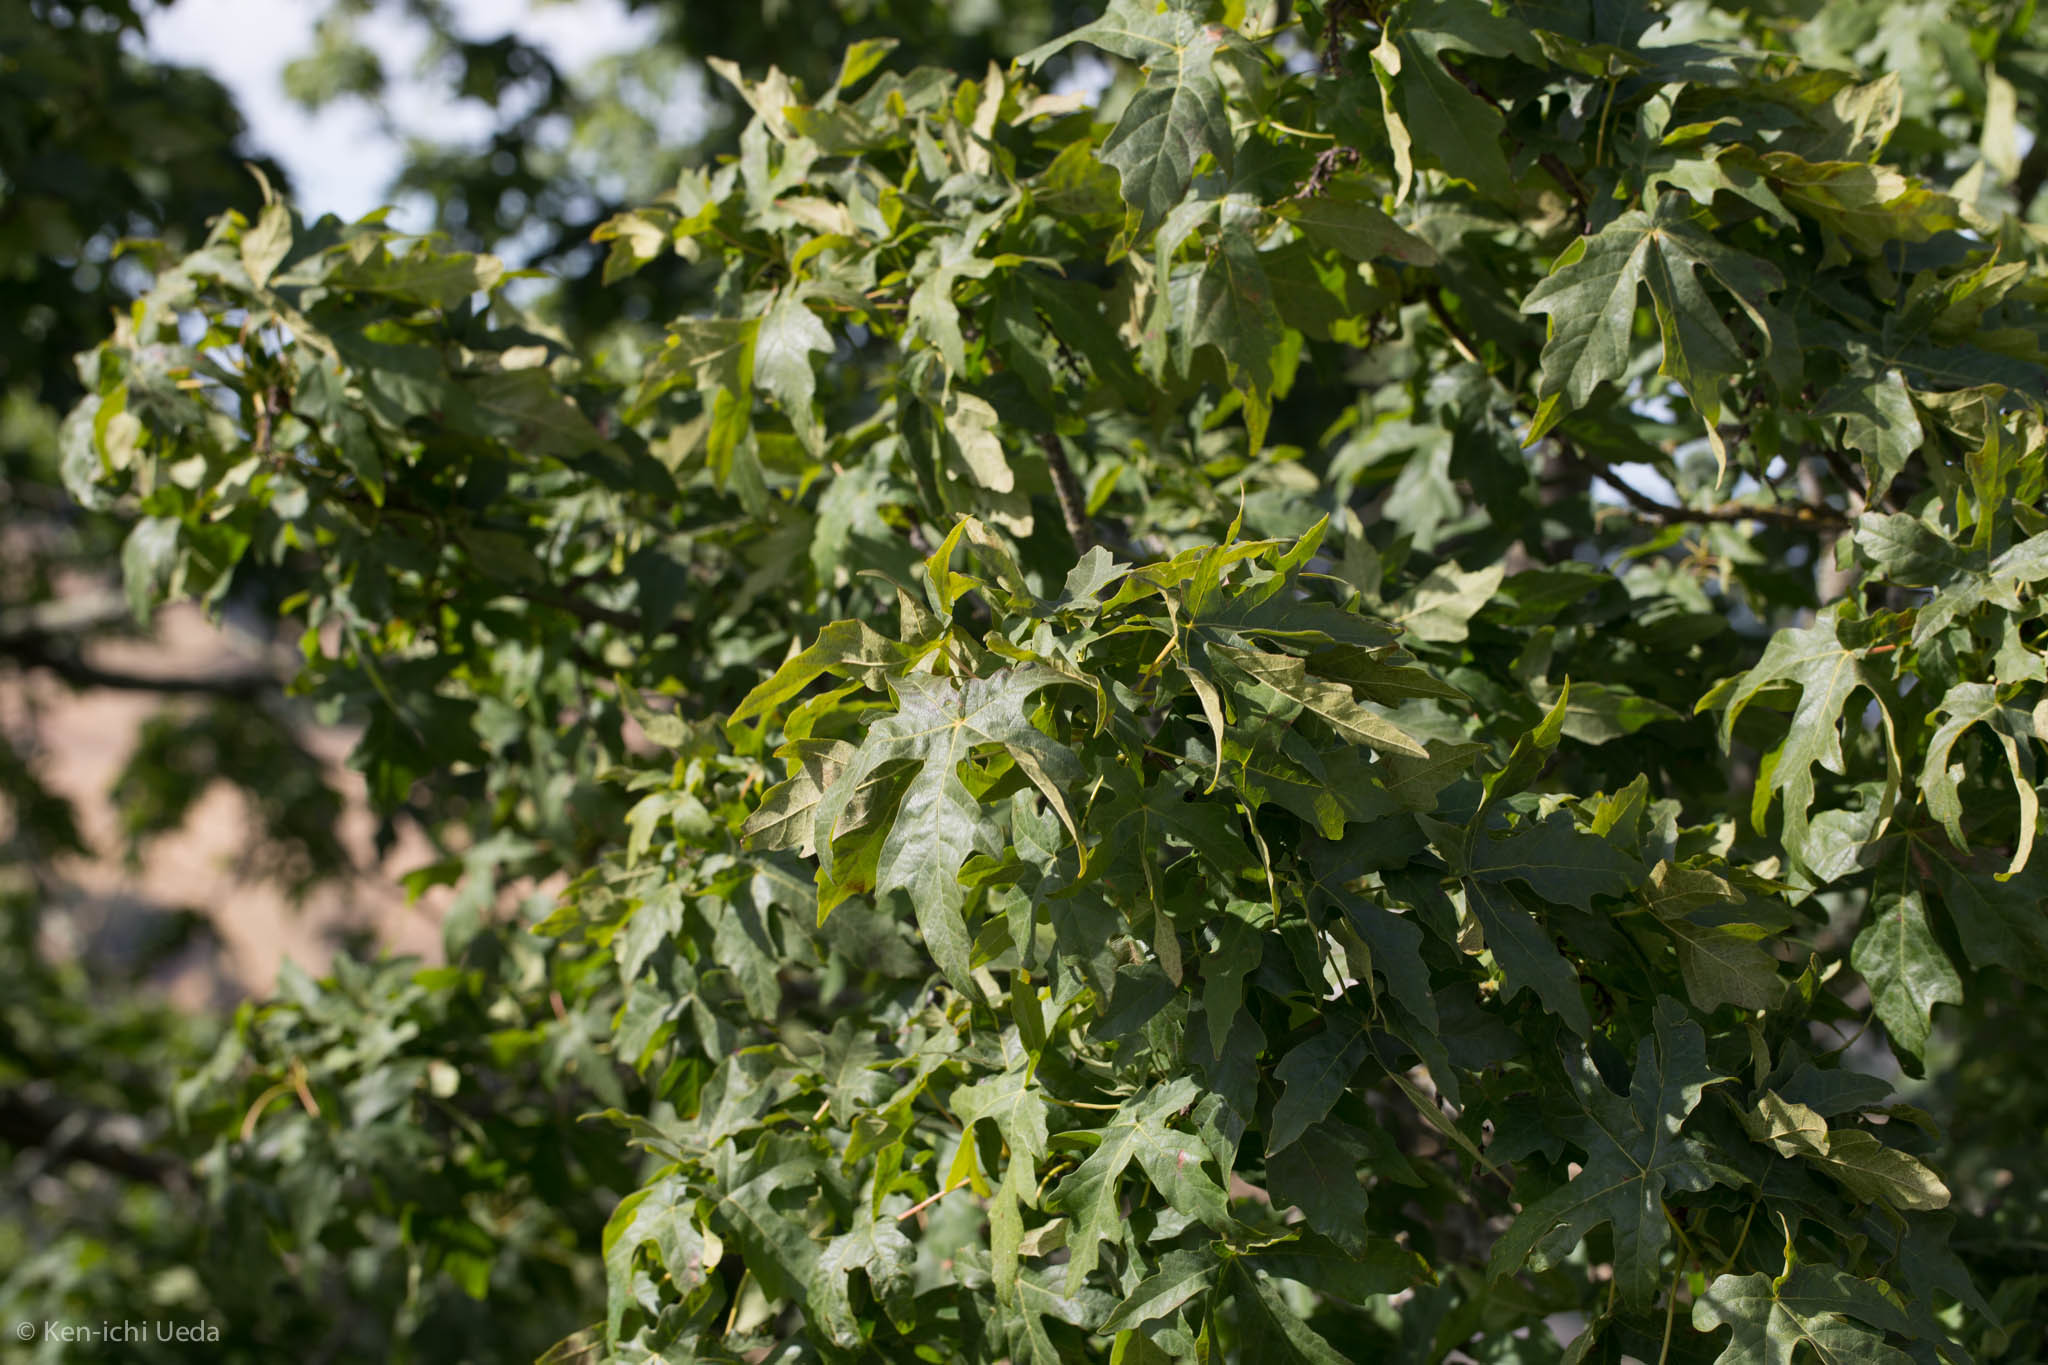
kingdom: Plantae
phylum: Tracheophyta
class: Magnoliopsida
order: Sapindales
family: Sapindaceae
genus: Acer
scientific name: Acer macrophyllum
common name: Oregon maple
